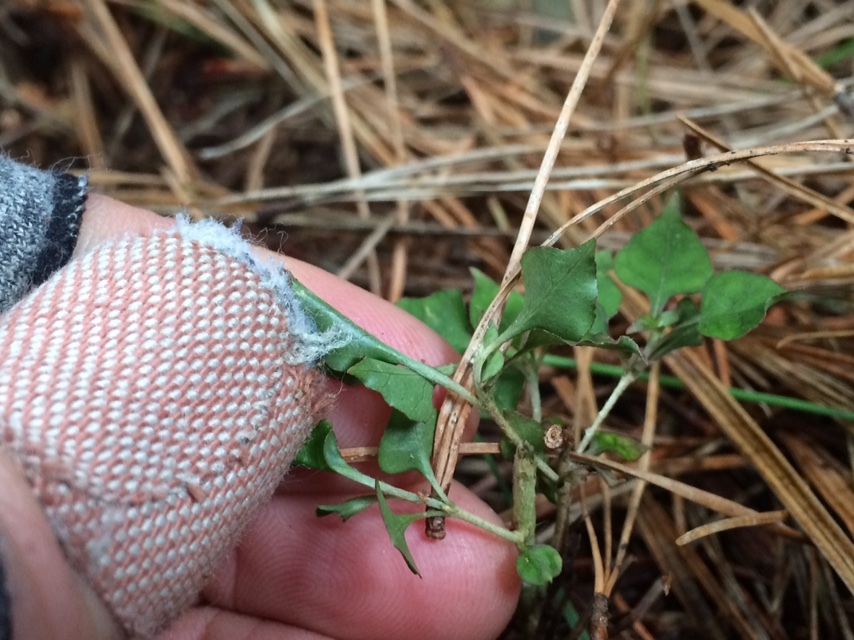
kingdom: Plantae
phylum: Tracheophyta
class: Magnoliopsida
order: Gentianales
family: Rubiaceae
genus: Coprosma
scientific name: Coprosma areolata
